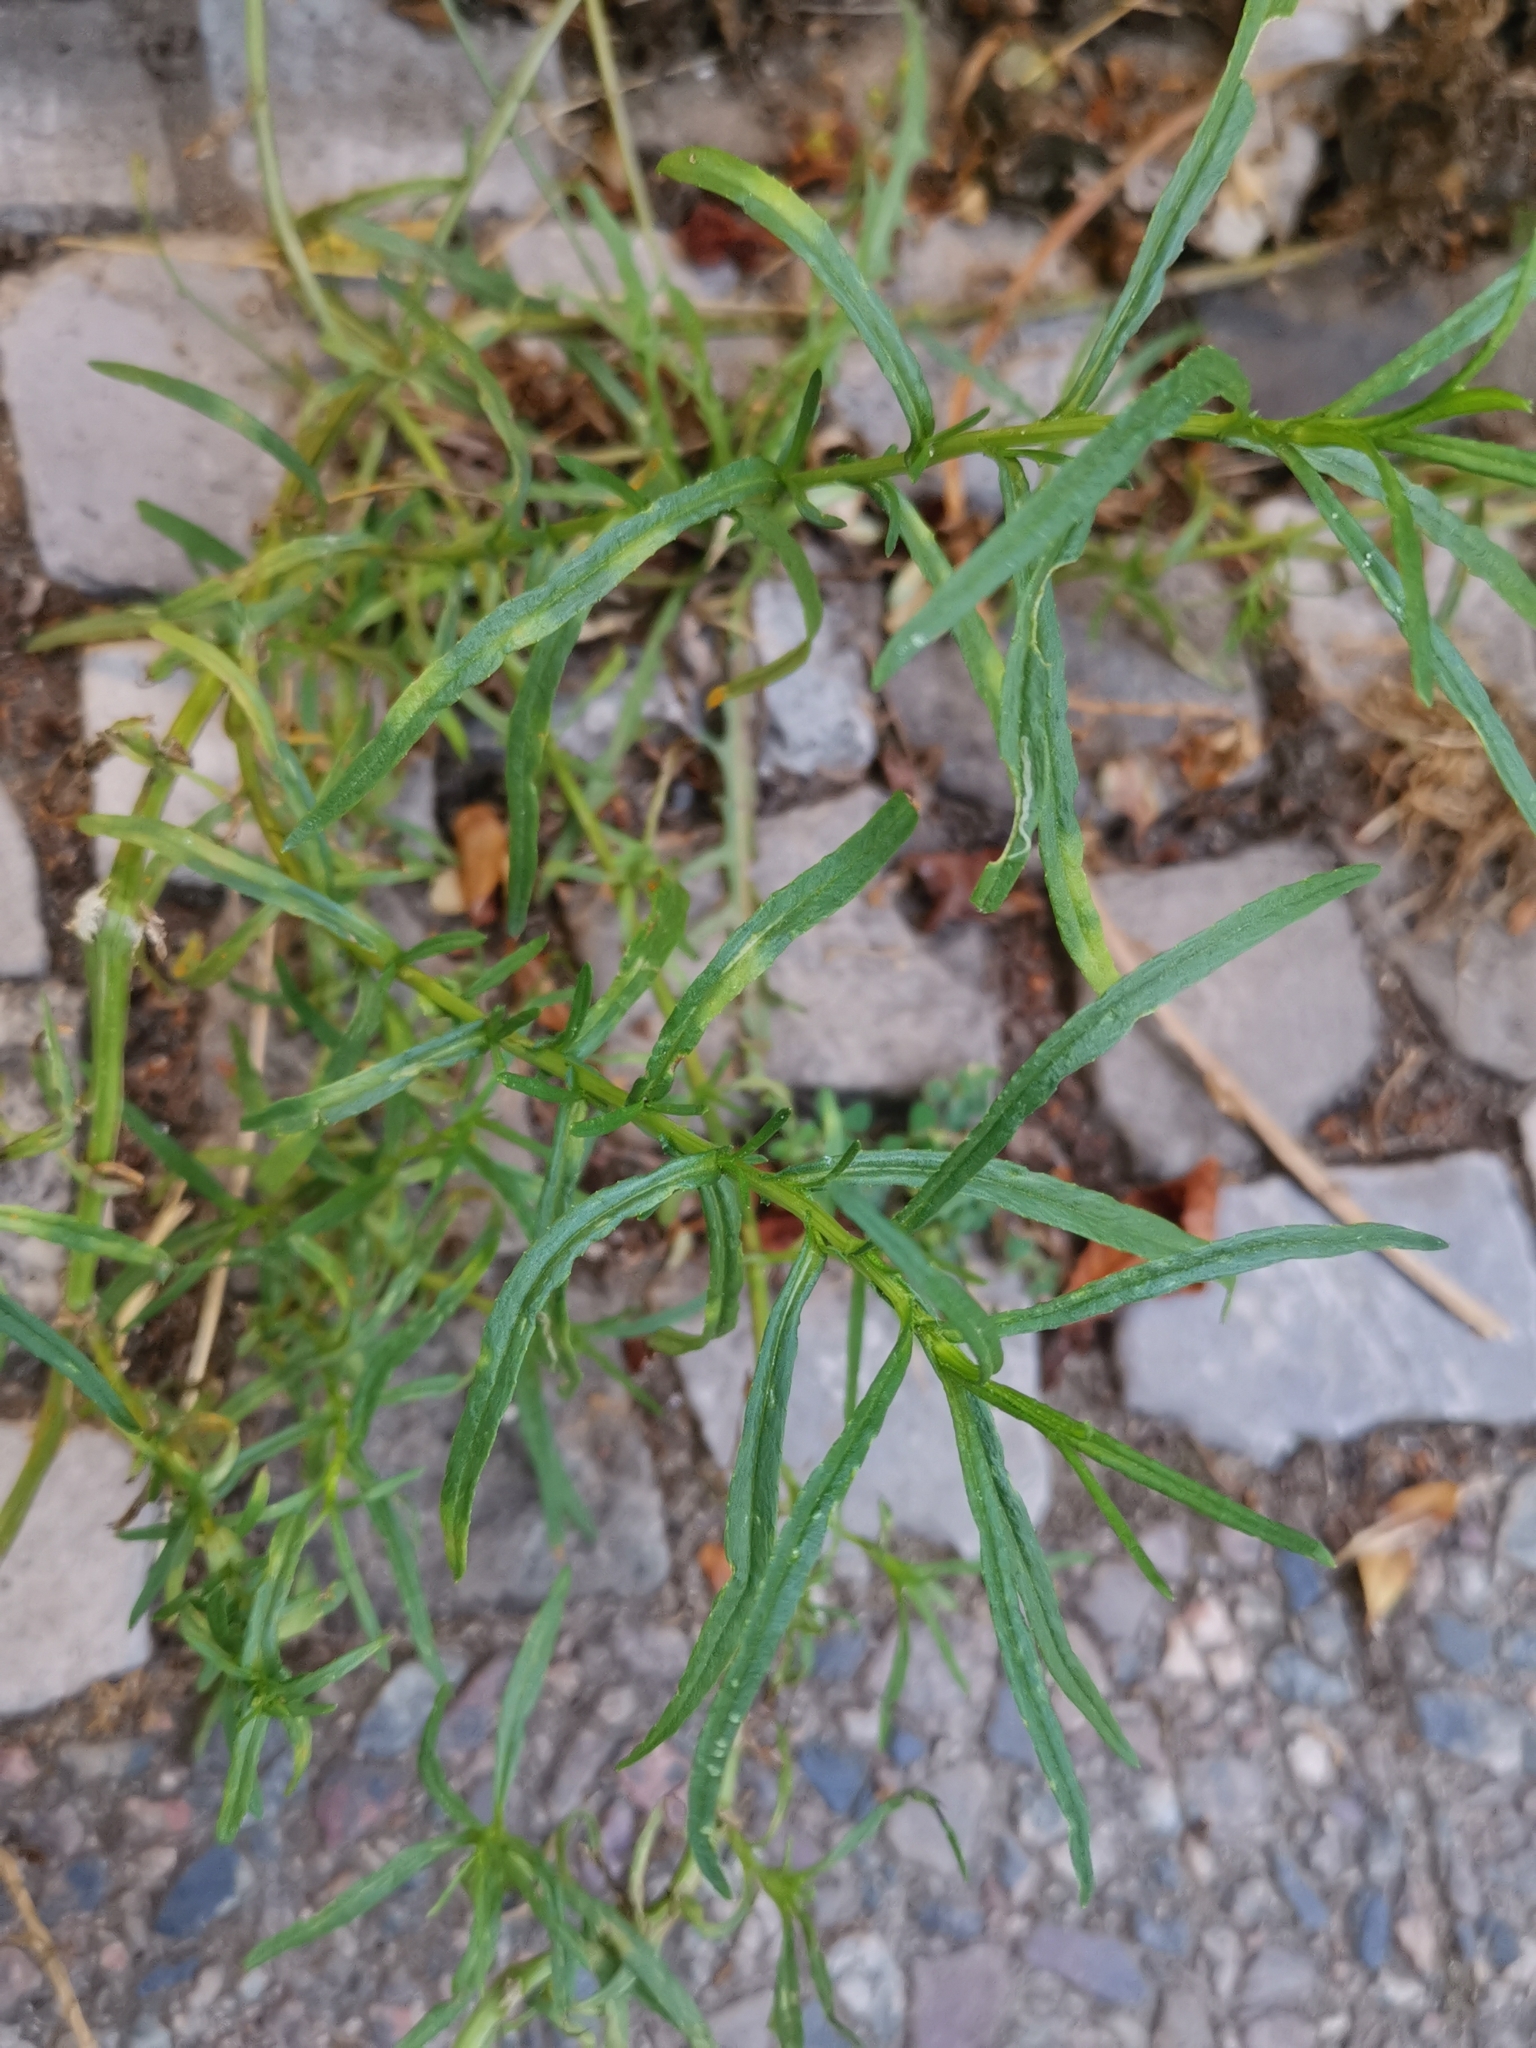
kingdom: Plantae
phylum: Tracheophyta
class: Magnoliopsida
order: Asterales
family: Asteraceae
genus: Senecio
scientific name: Senecio inaequidens
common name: Narrow-leaved ragwort
